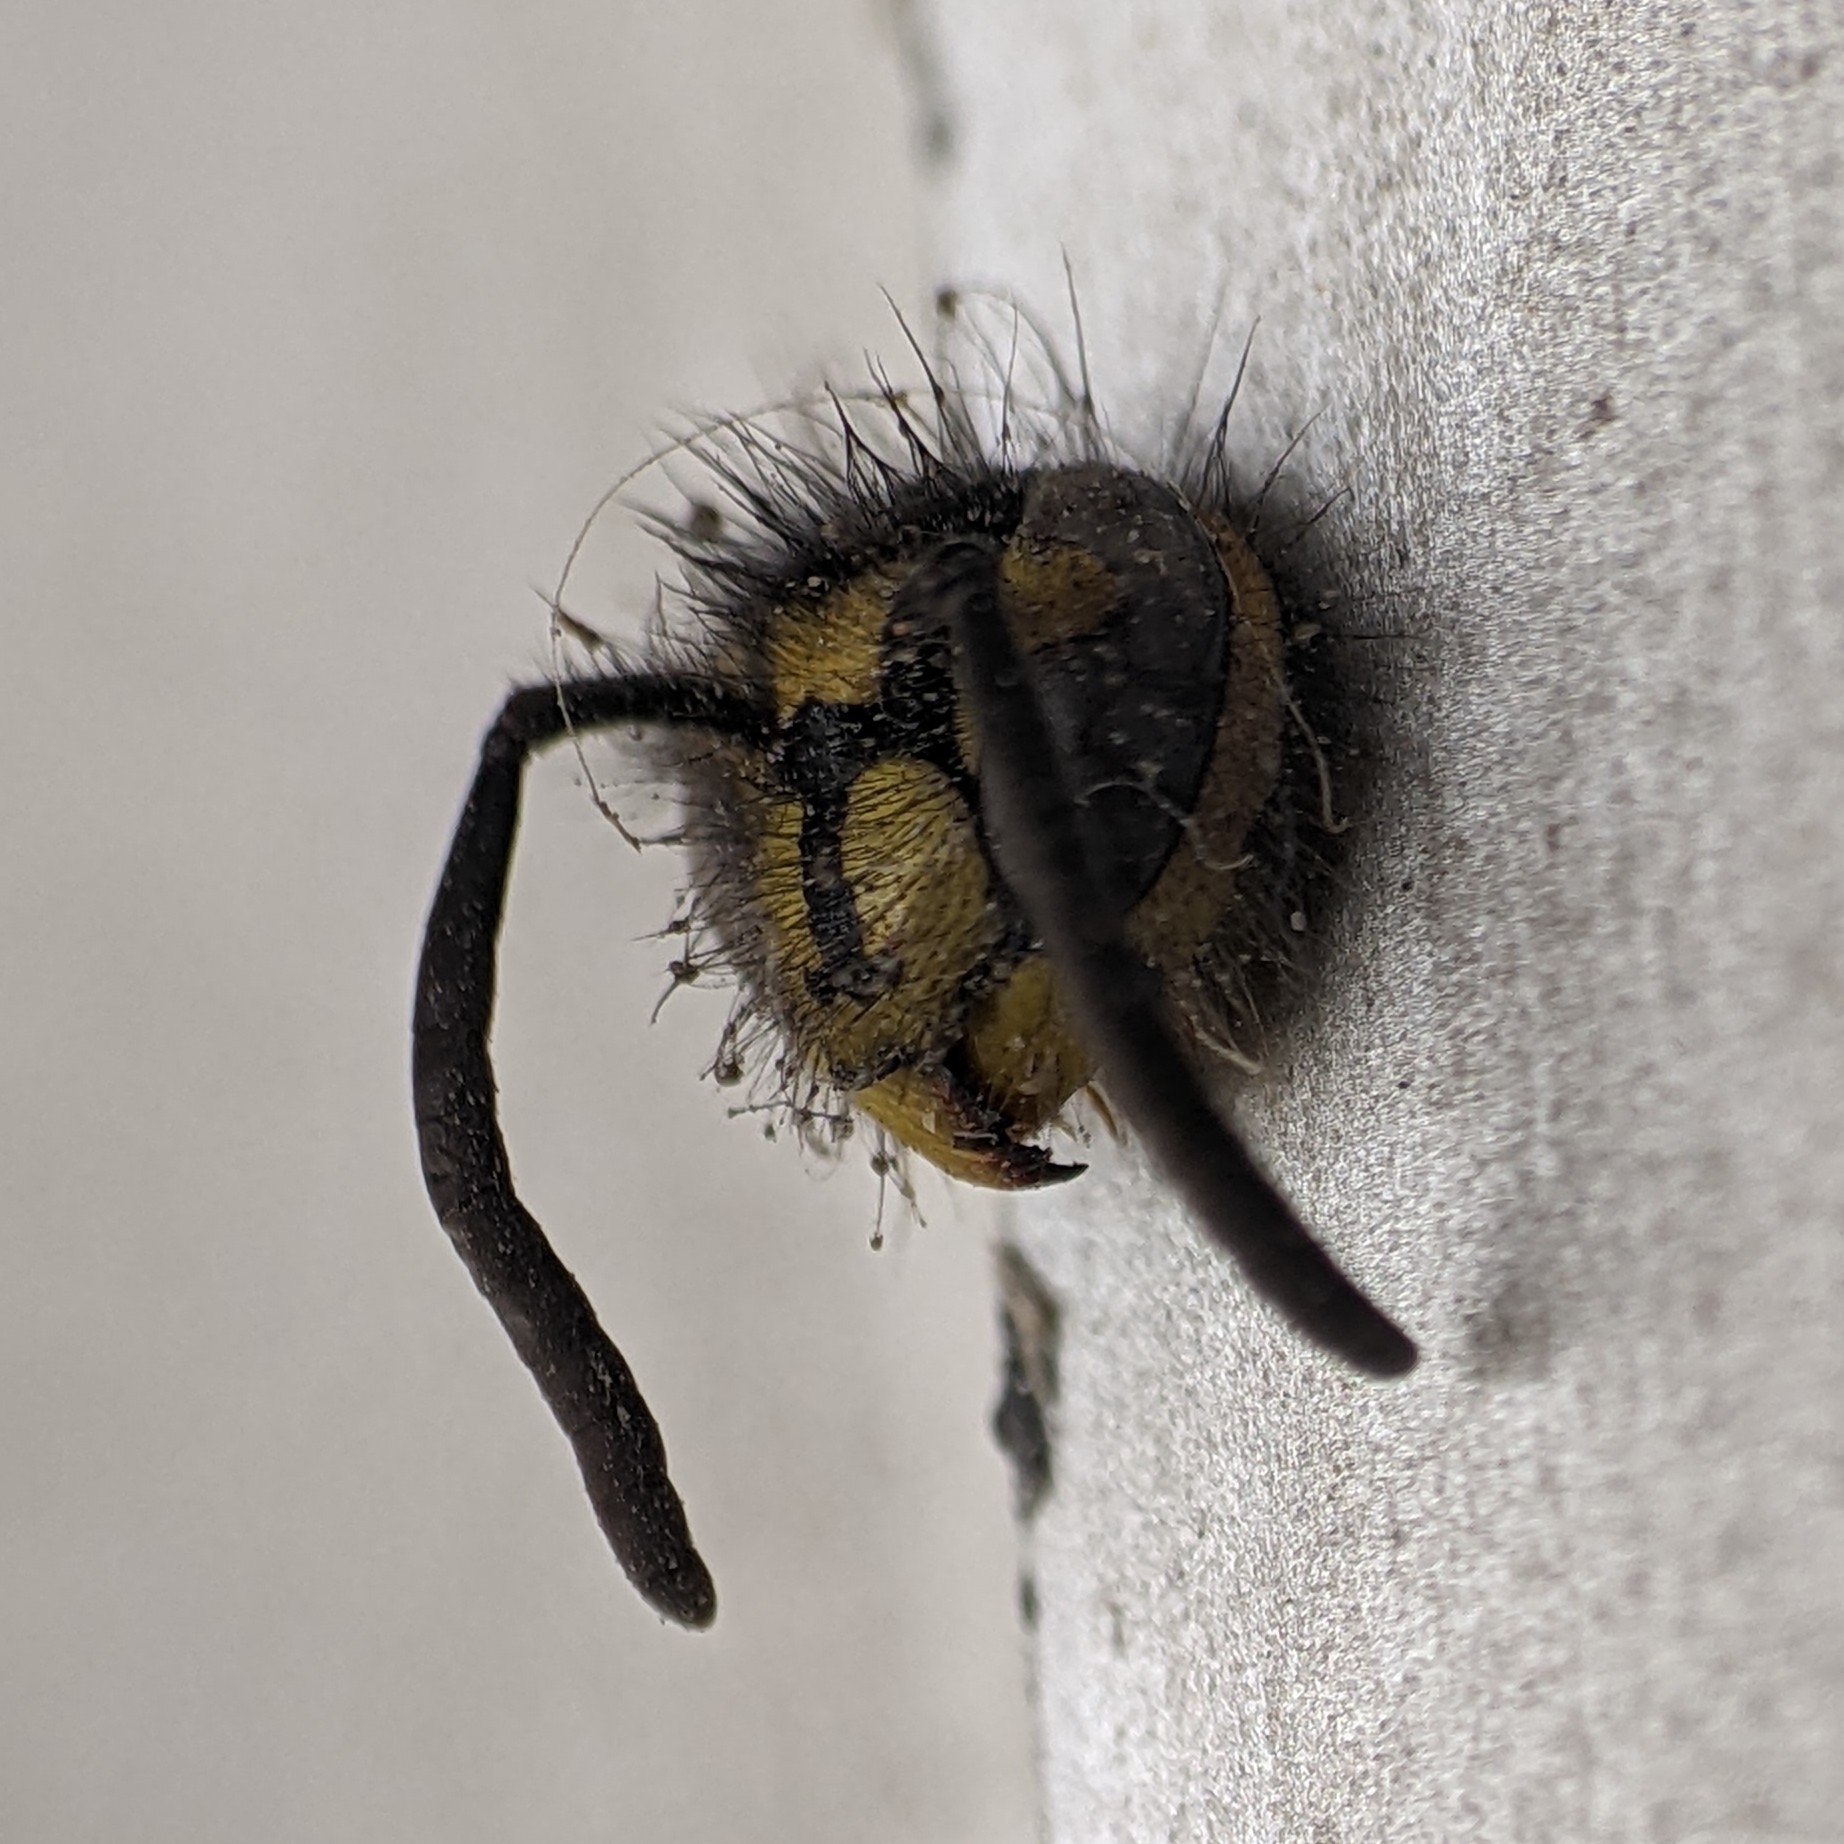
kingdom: Animalia
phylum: Arthropoda
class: Insecta
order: Hymenoptera
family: Vespidae
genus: Vespula
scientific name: Vespula
